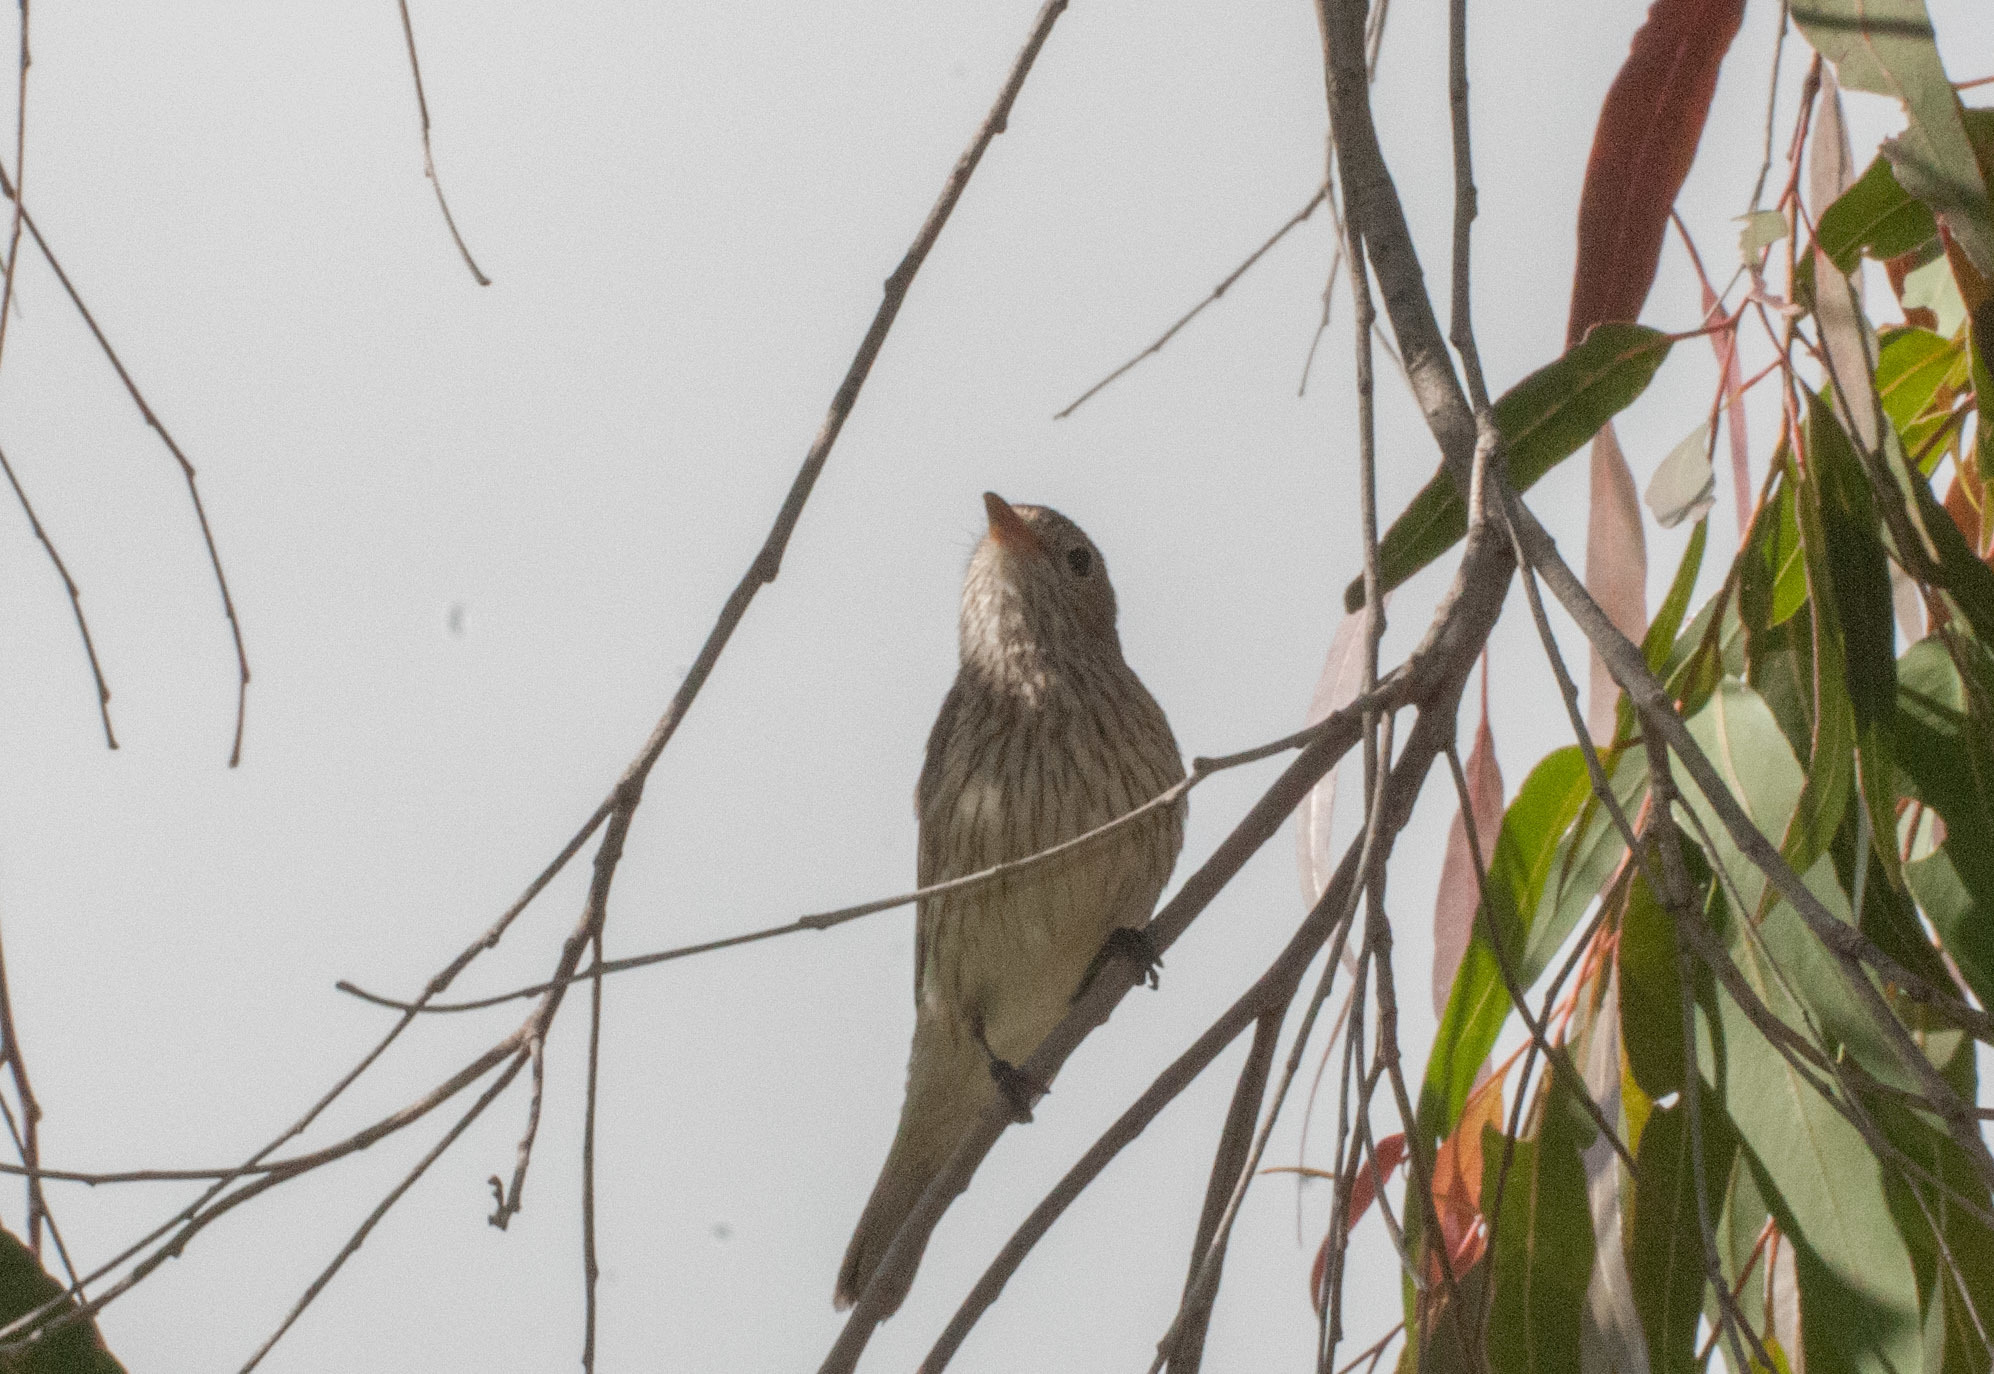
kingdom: Animalia
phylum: Chordata
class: Aves
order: Passeriformes
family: Pachycephalidae
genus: Pachycephala
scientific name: Pachycephala rufiventris
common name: Rufous whistler
